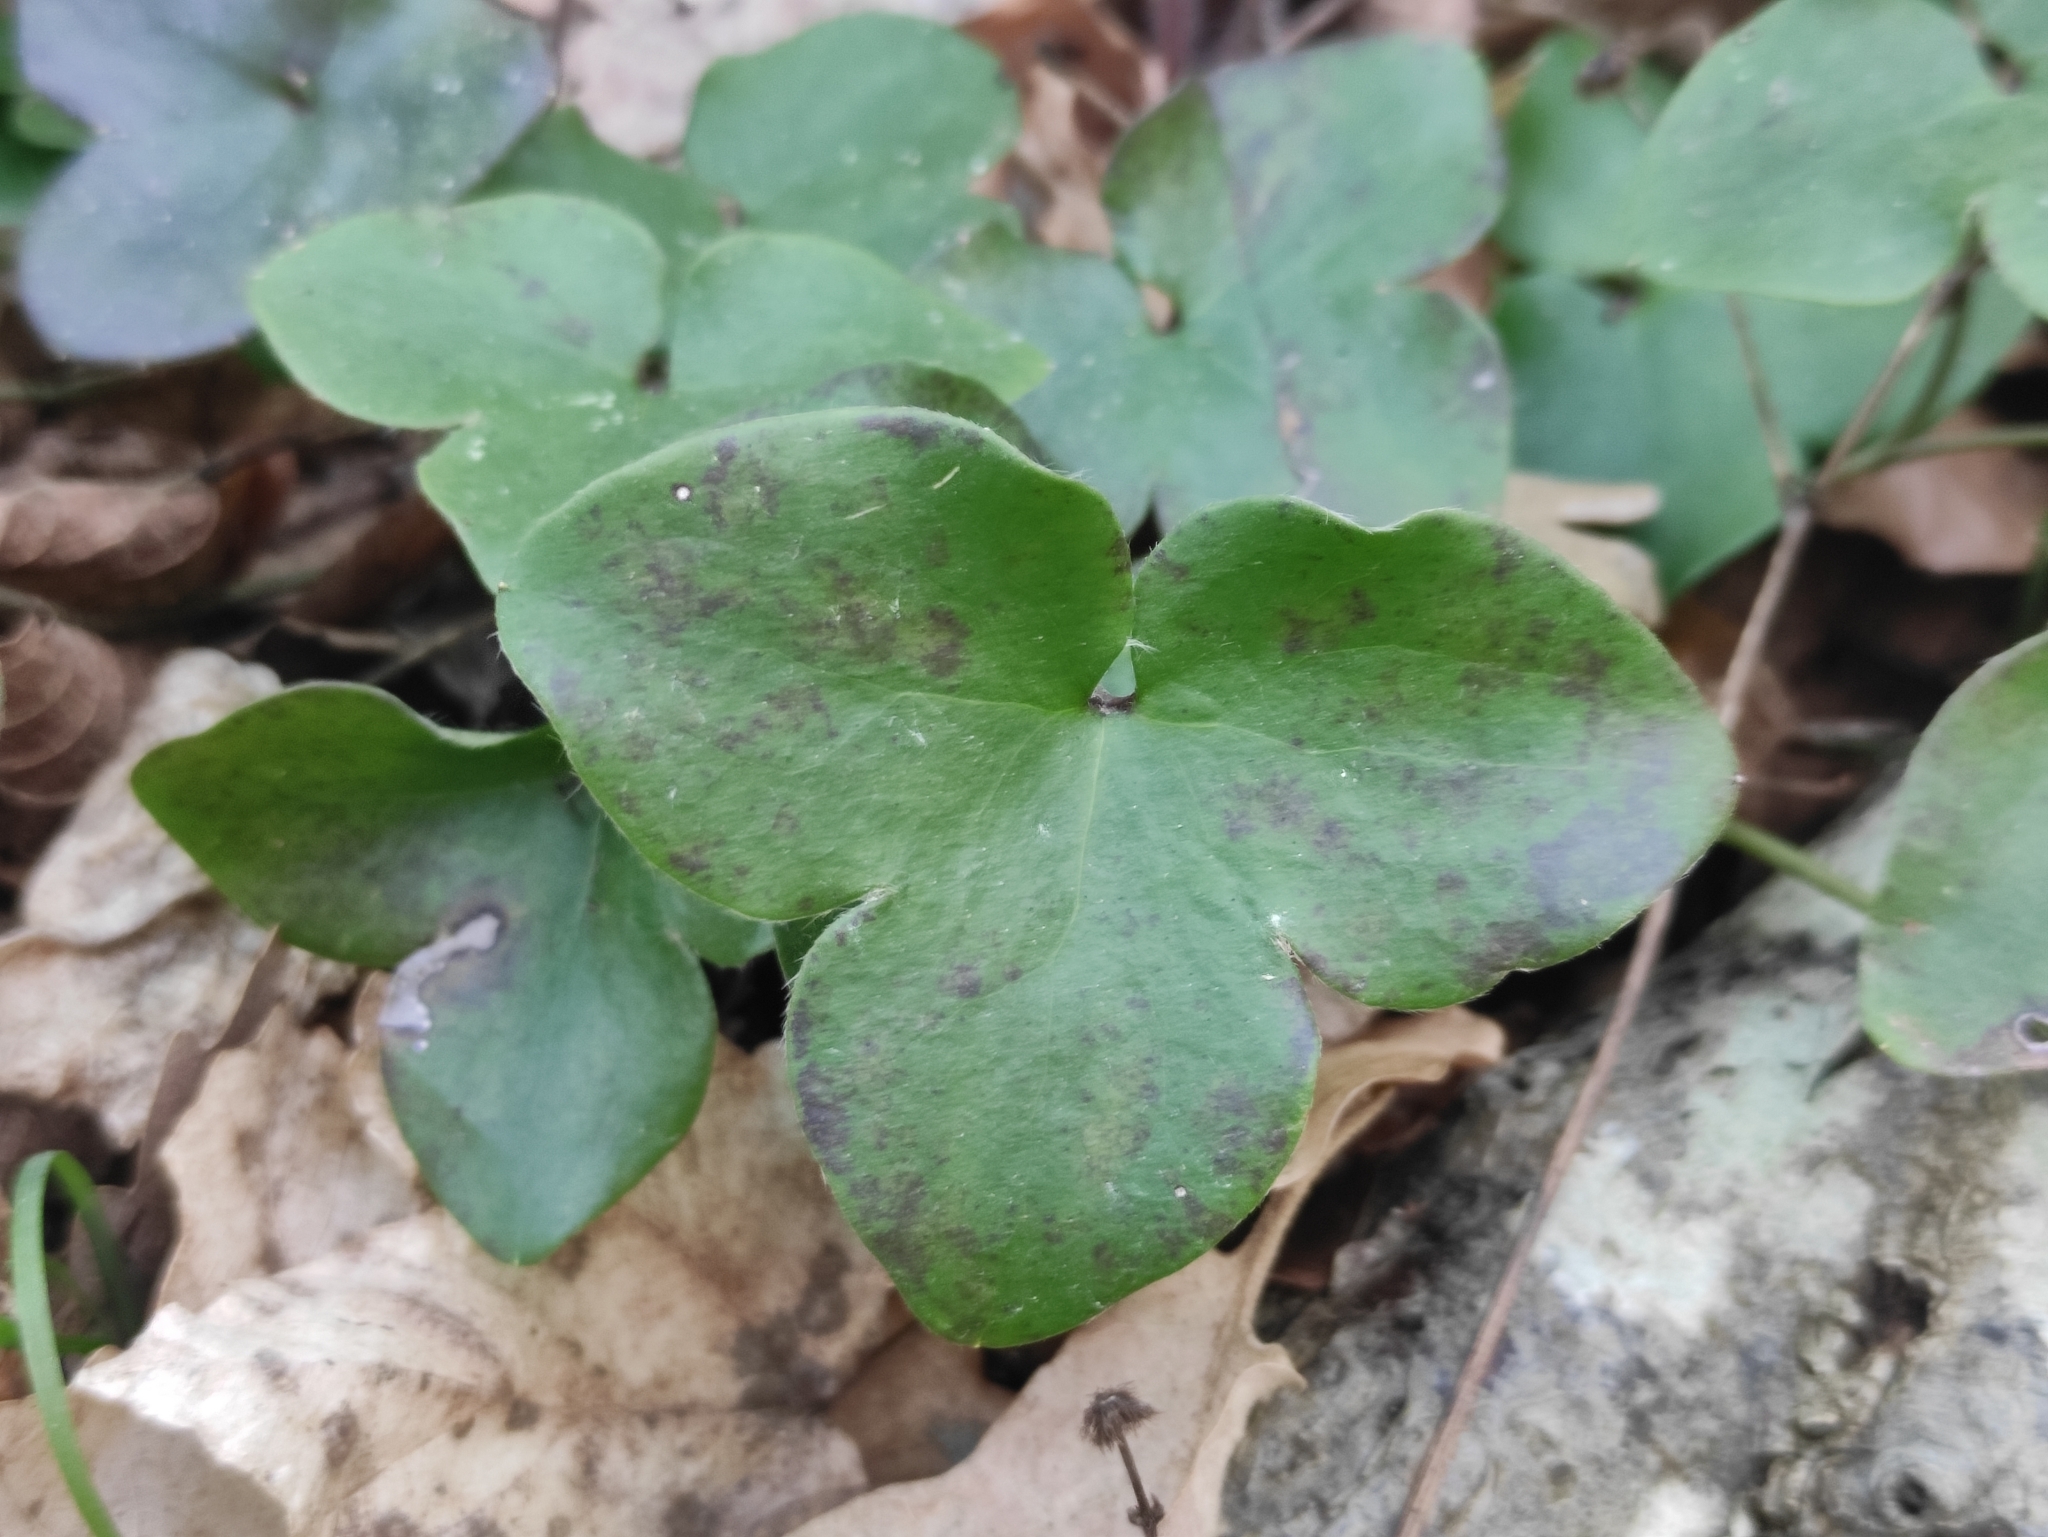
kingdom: Plantae
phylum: Tracheophyta
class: Magnoliopsida
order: Ranunculales
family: Ranunculaceae
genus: Hepatica
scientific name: Hepatica nobilis
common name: Liverleaf
